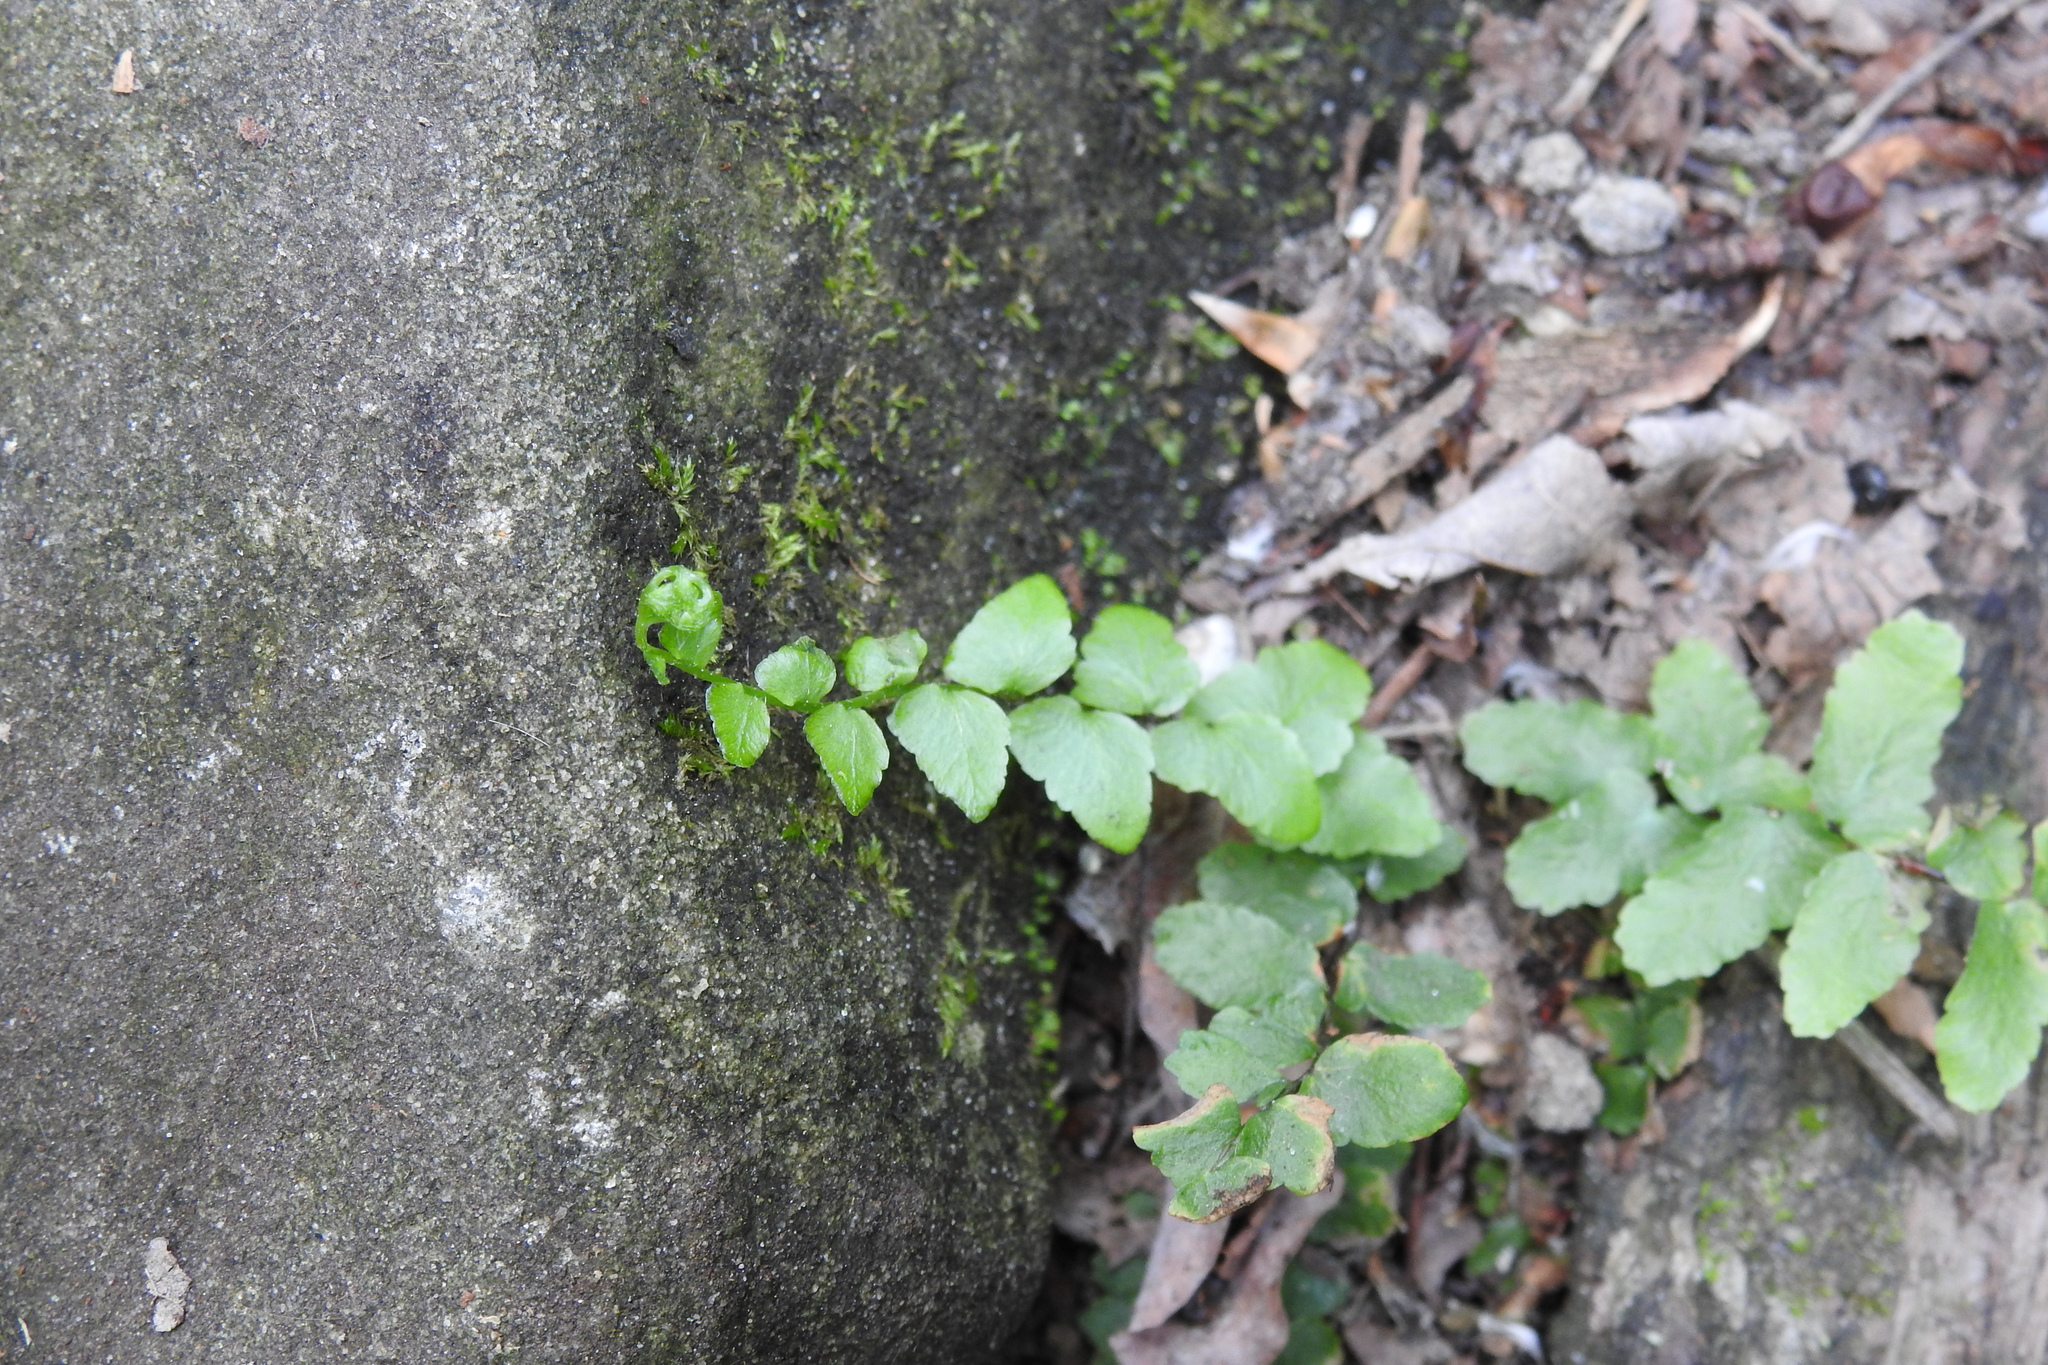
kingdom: Plantae
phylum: Tracheophyta
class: Polypodiopsida
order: Polypodiales
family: Aspleniaceae
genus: Asplenium
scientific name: Asplenium platyneuron
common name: Ebony spleenwort
